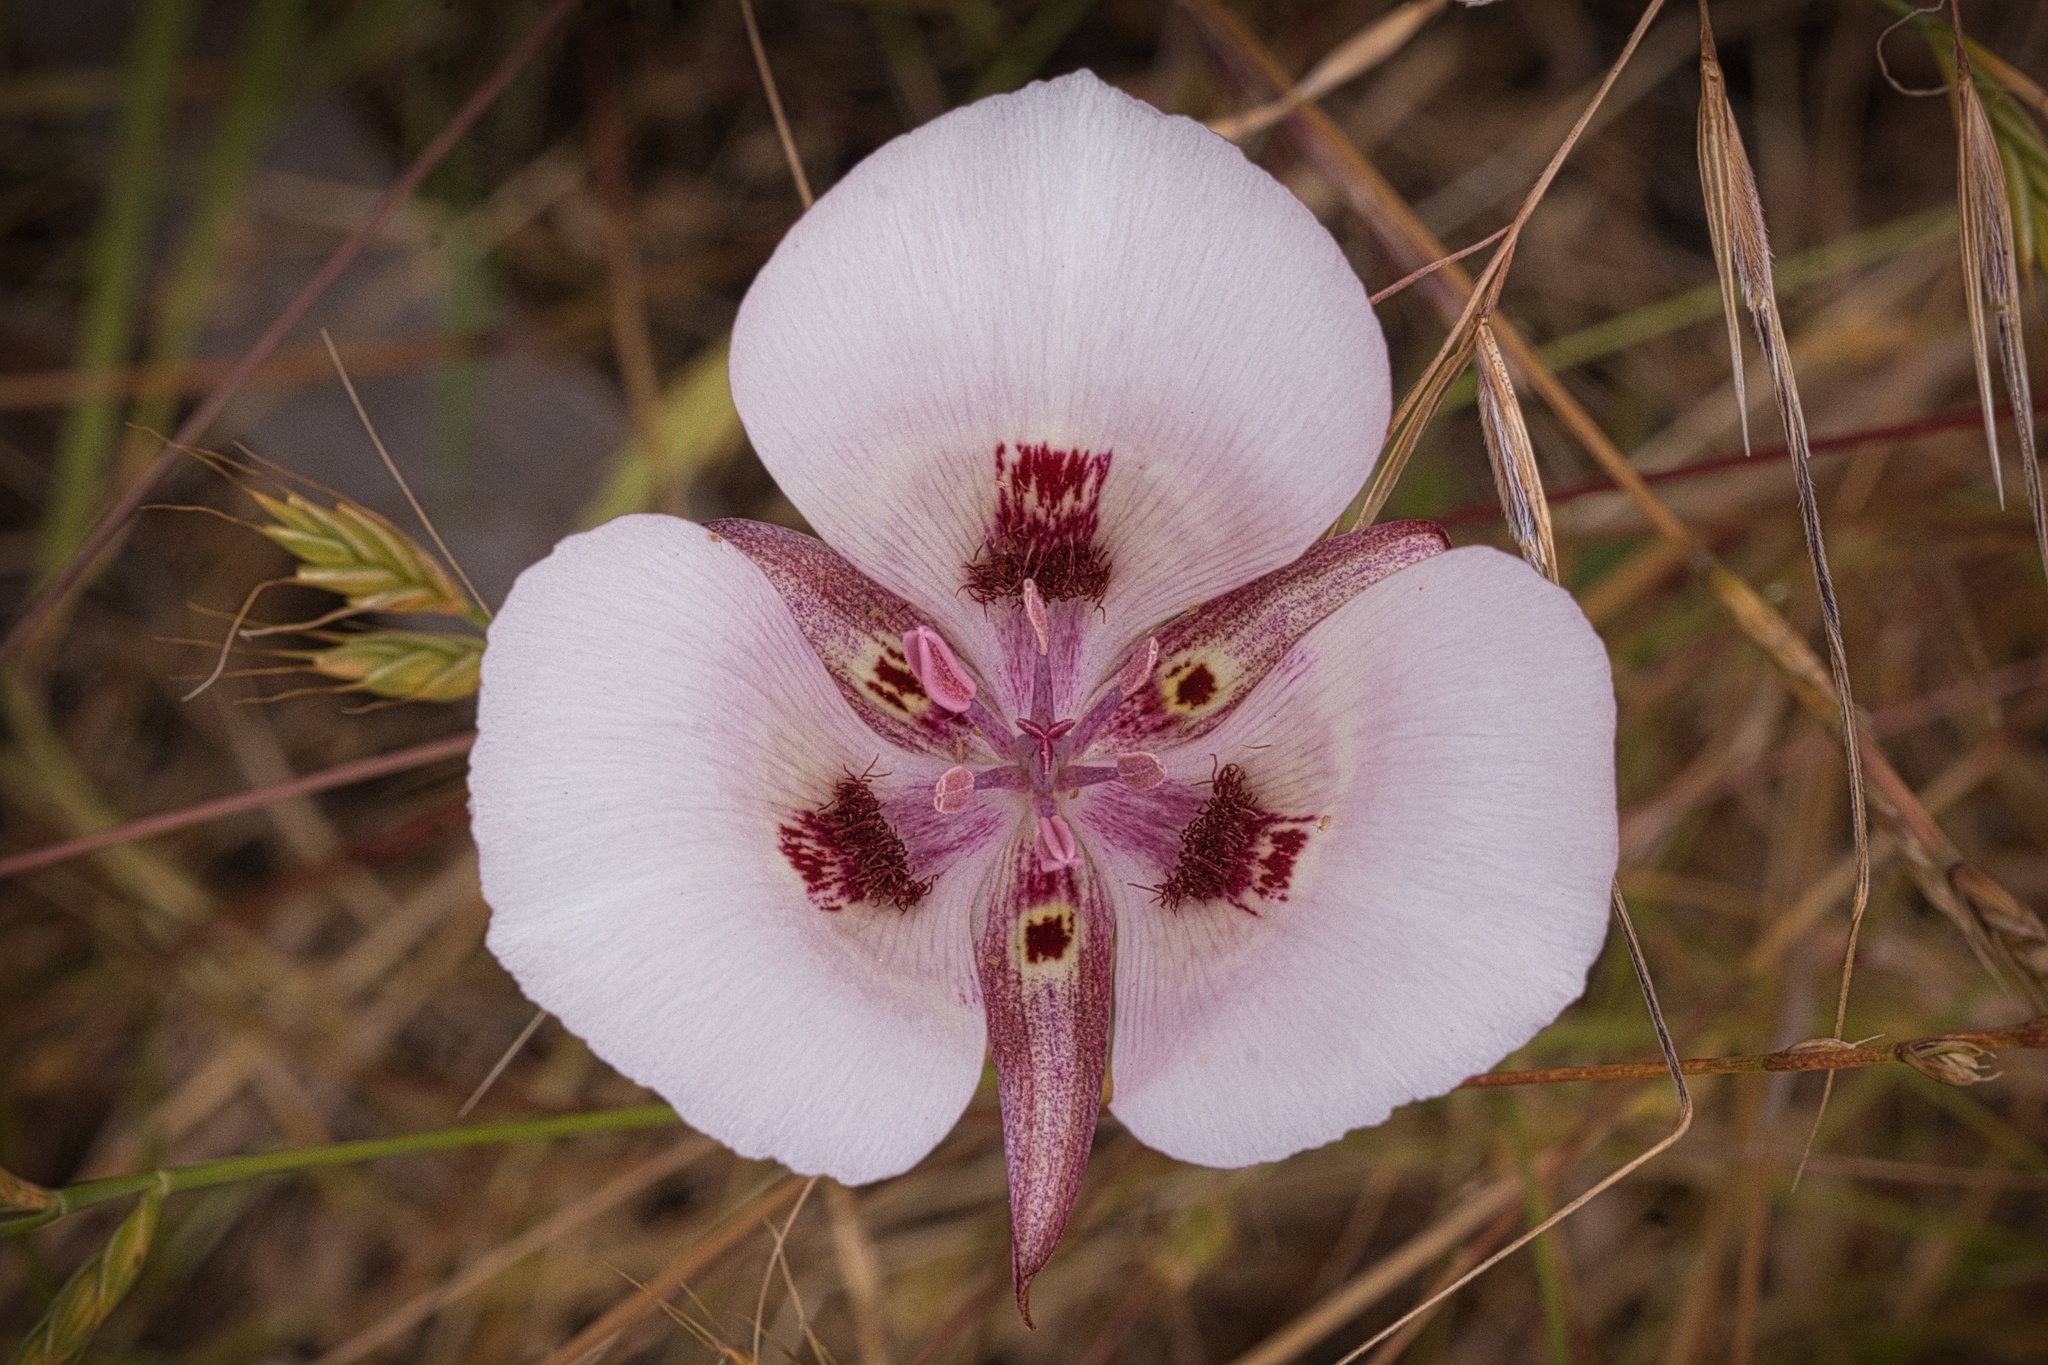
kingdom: Plantae
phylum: Tracheophyta
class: Liliopsida
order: Liliales
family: Liliaceae
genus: Calochortus
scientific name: Calochortus argillosus
